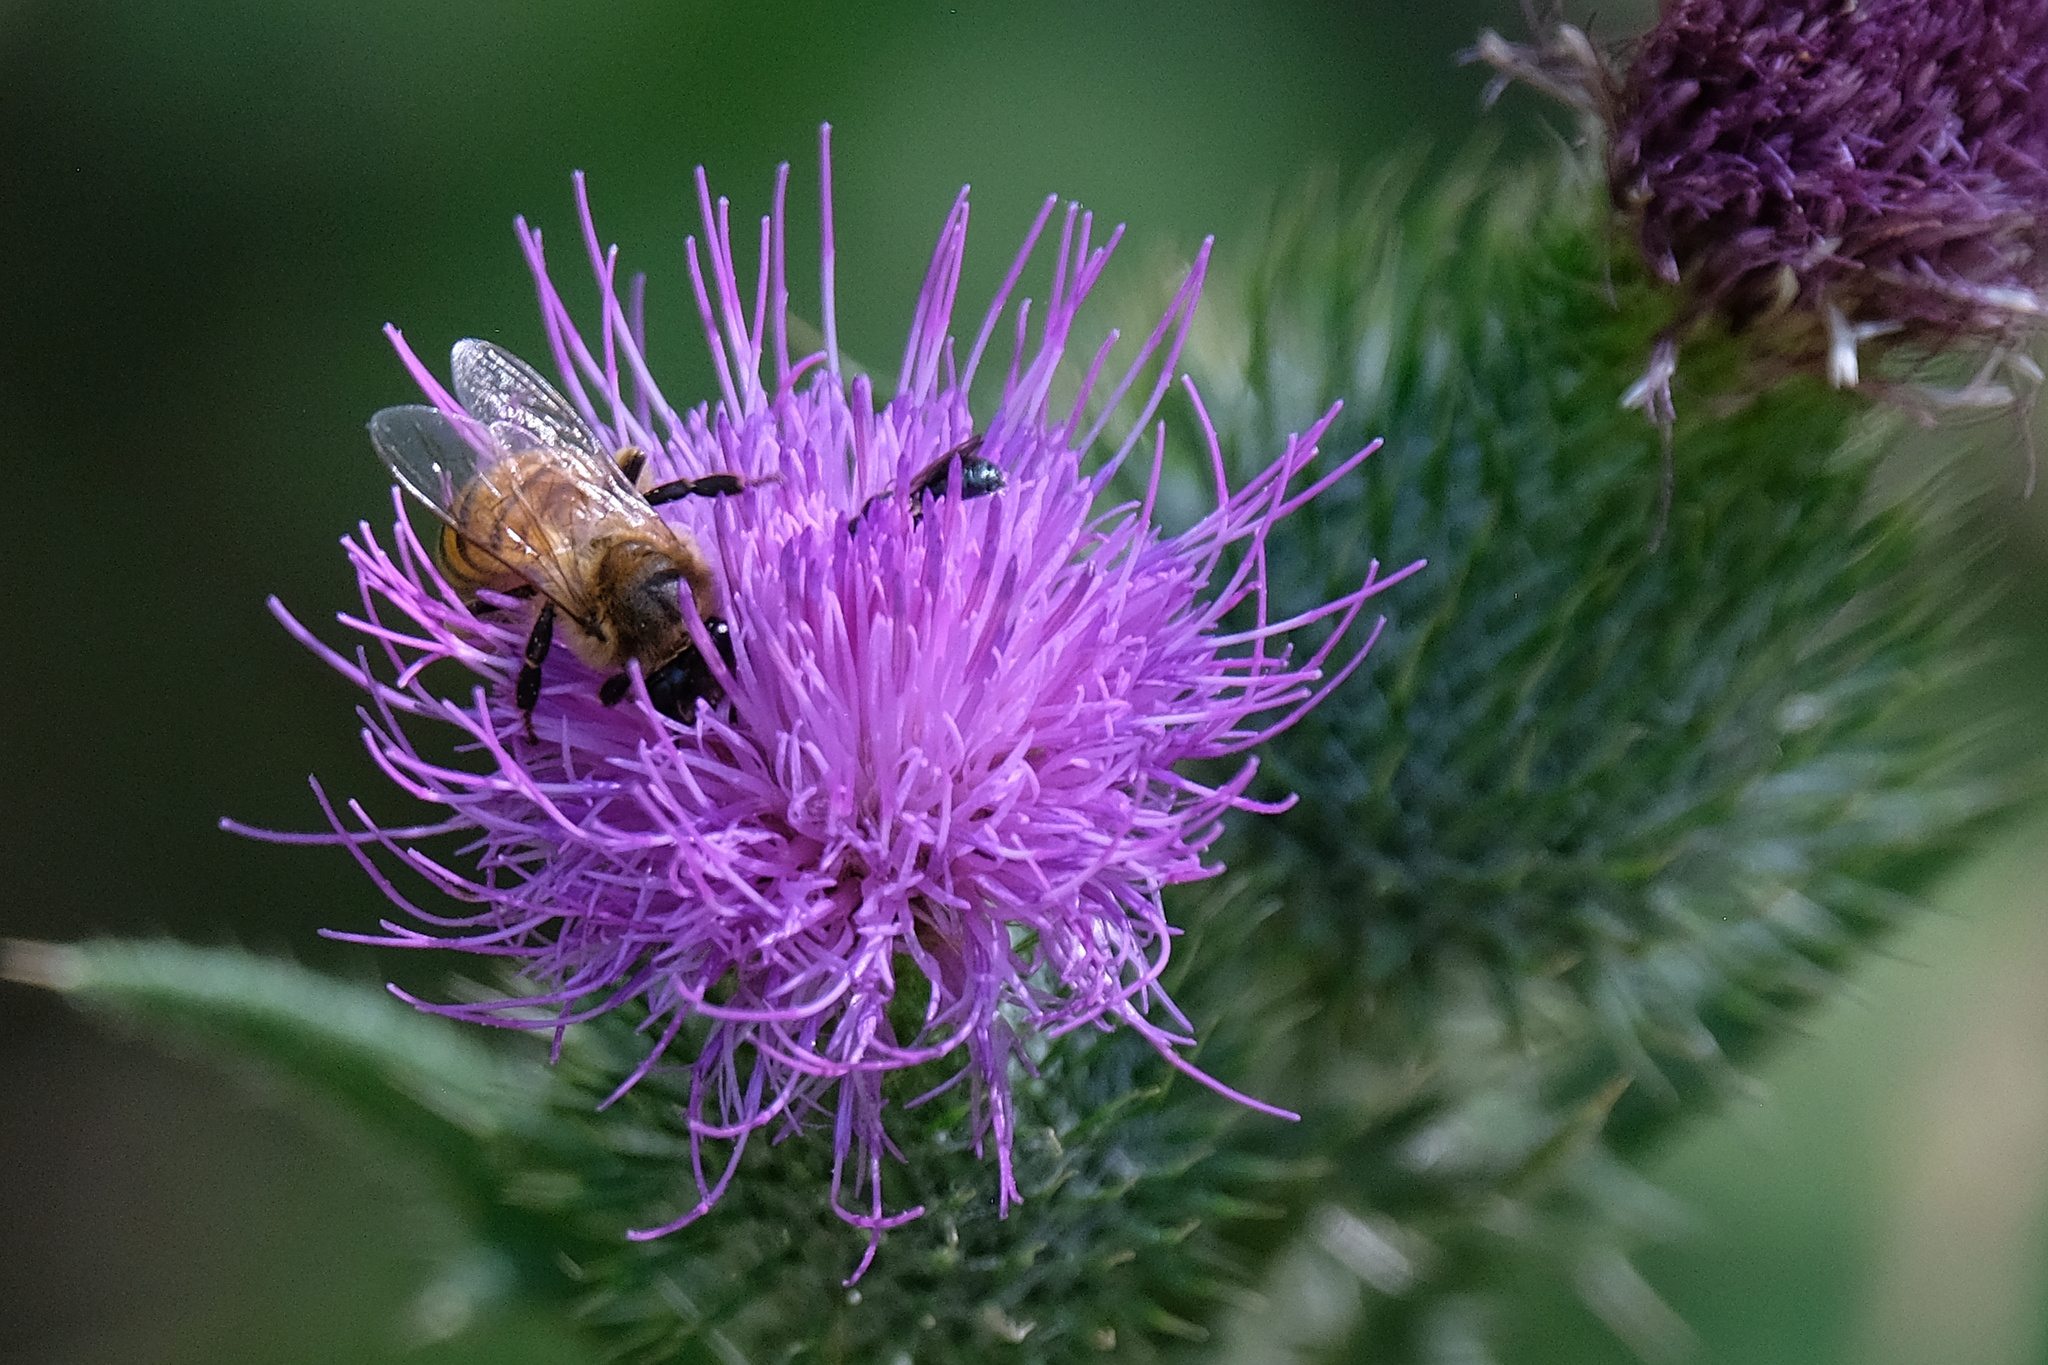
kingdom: Plantae
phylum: Tracheophyta
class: Magnoliopsida
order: Asterales
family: Asteraceae
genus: Cirsium
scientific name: Cirsium vulgare
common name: Bull thistle
